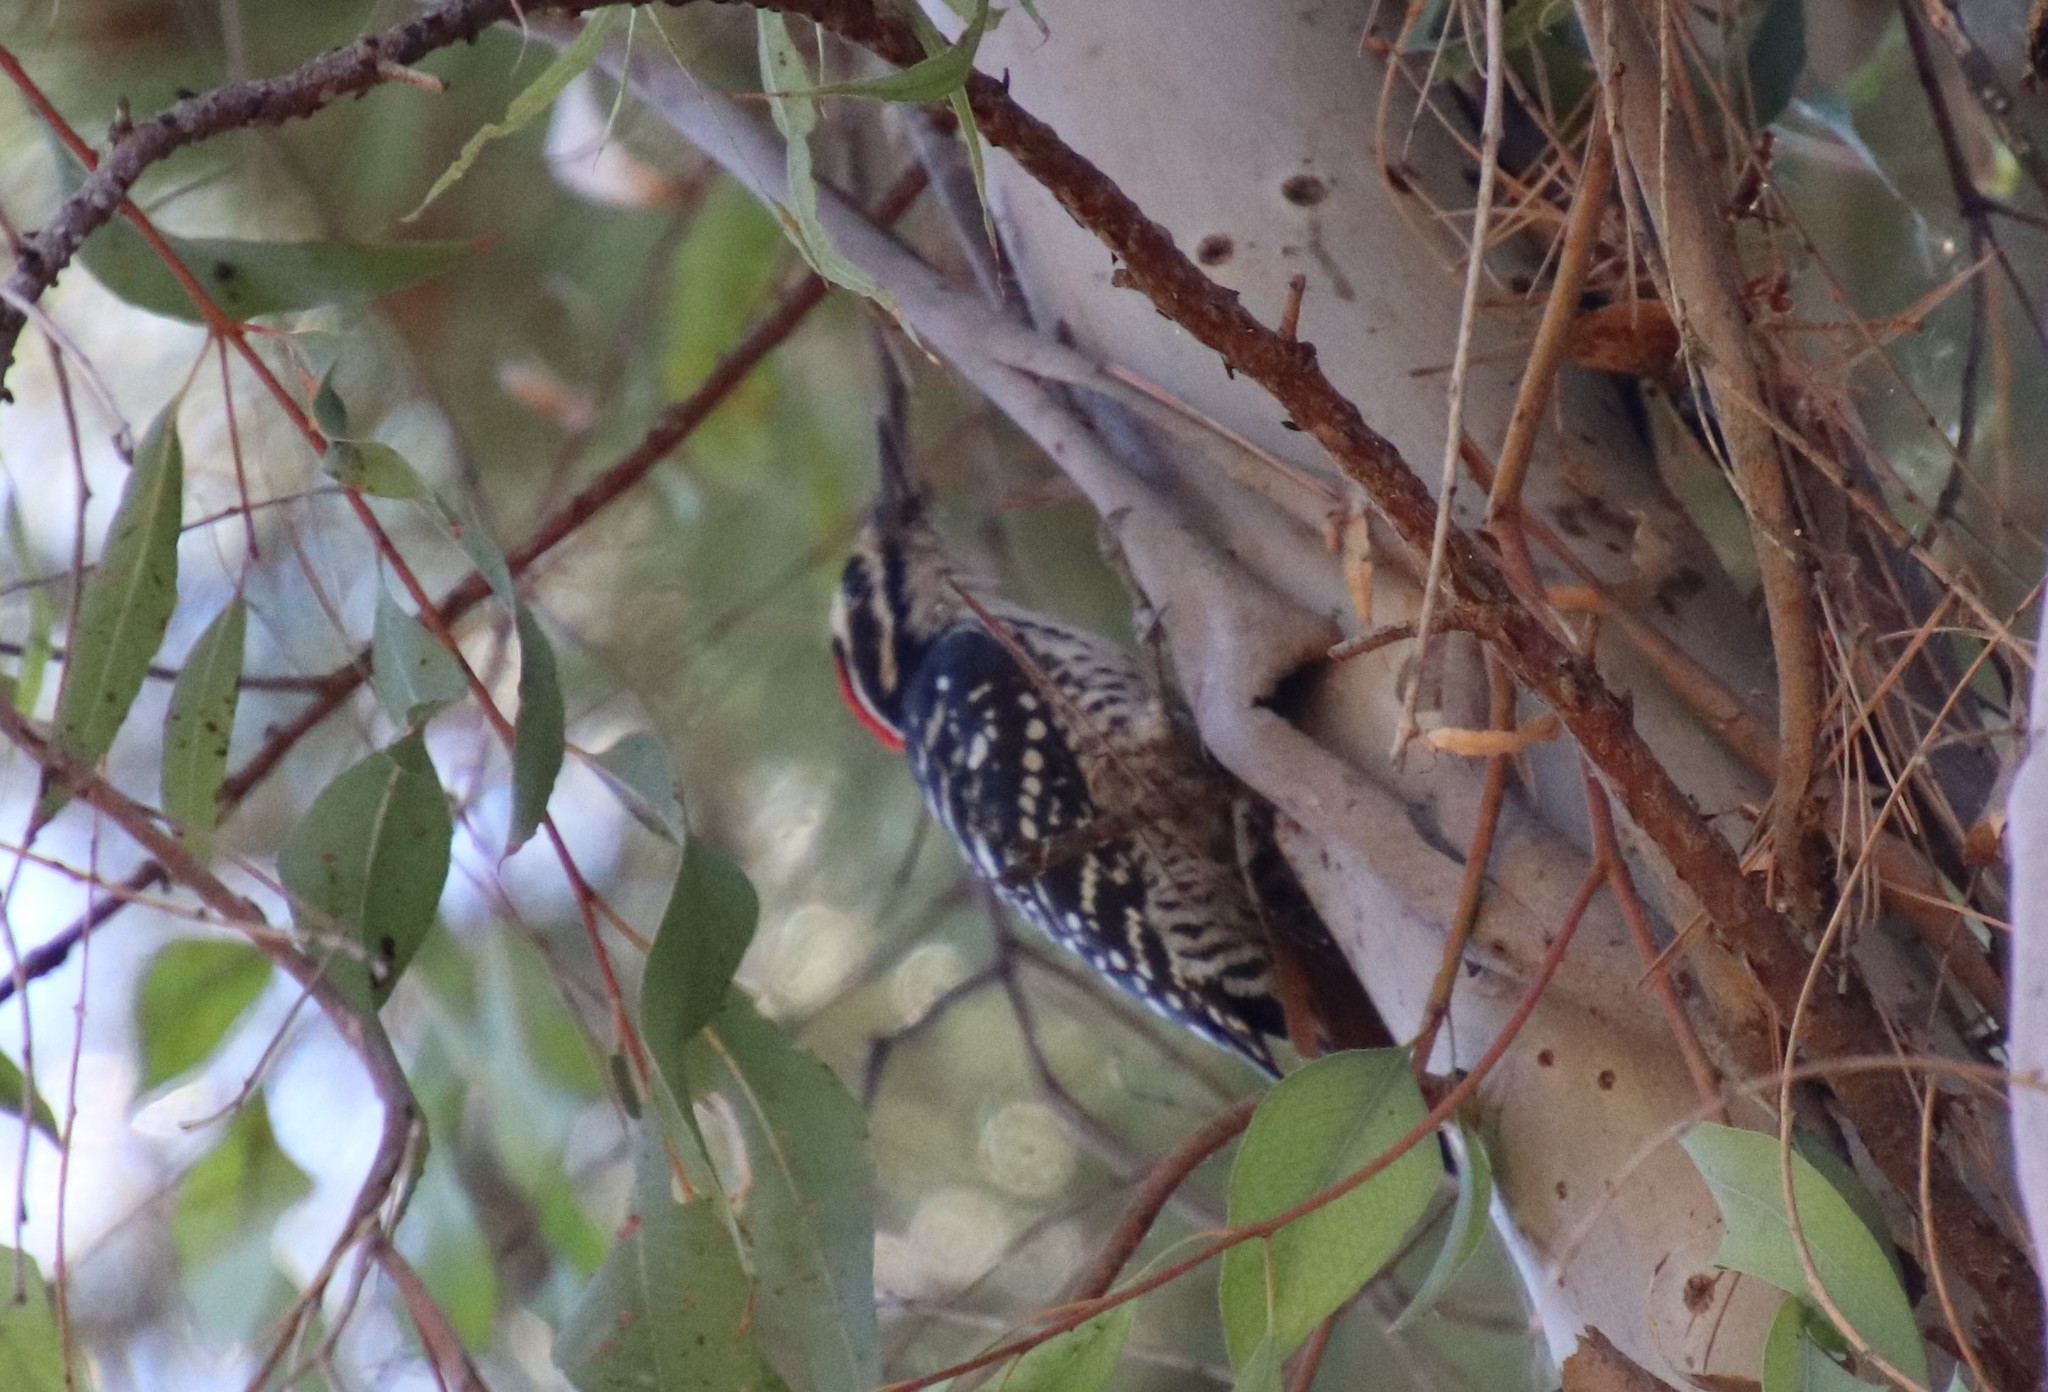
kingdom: Animalia
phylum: Chordata
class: Aves
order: Piciformes
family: Picidae
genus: Dryobates
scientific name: Dryobates nuttallii
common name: Nuttall's woodpecker
